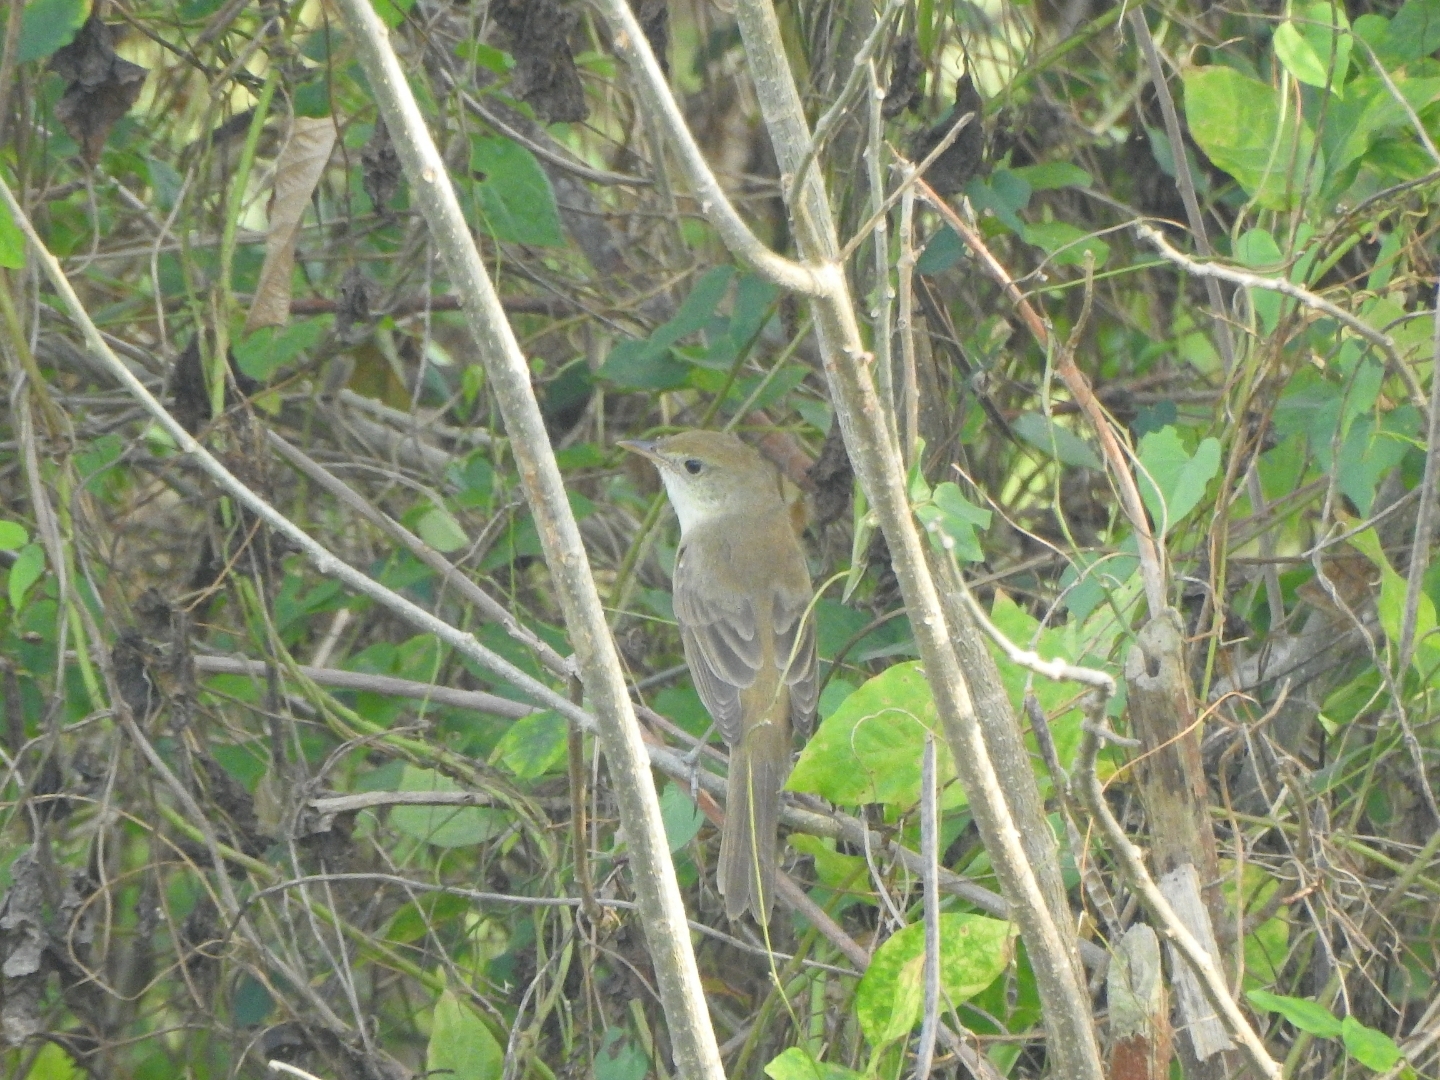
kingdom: Animalia
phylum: Chordata
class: Aves
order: Passeriformes
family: Acrocephalidae
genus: Iduna
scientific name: Iduna aedon
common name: Thick-billed warbler
